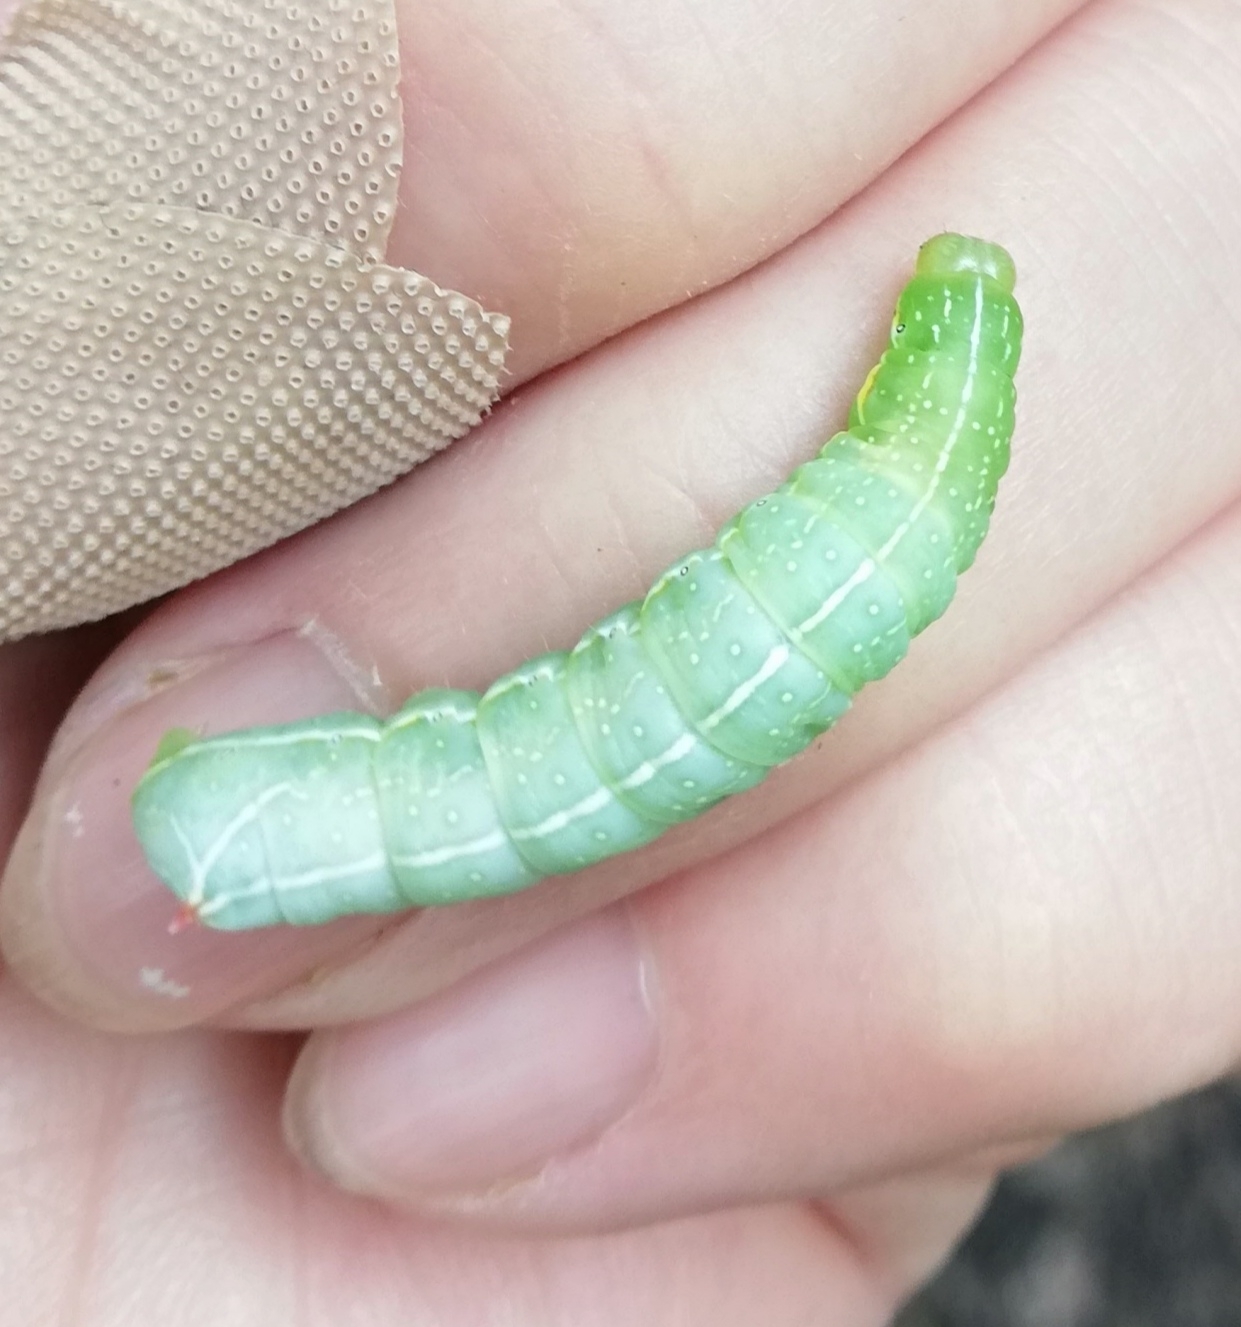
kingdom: Animalia
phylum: Arthropoda
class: Insecta
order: Lepidoptera
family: Noctuidae
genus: Amphipyra
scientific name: Amphipyra berbera
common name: Svensson's copper underwing
